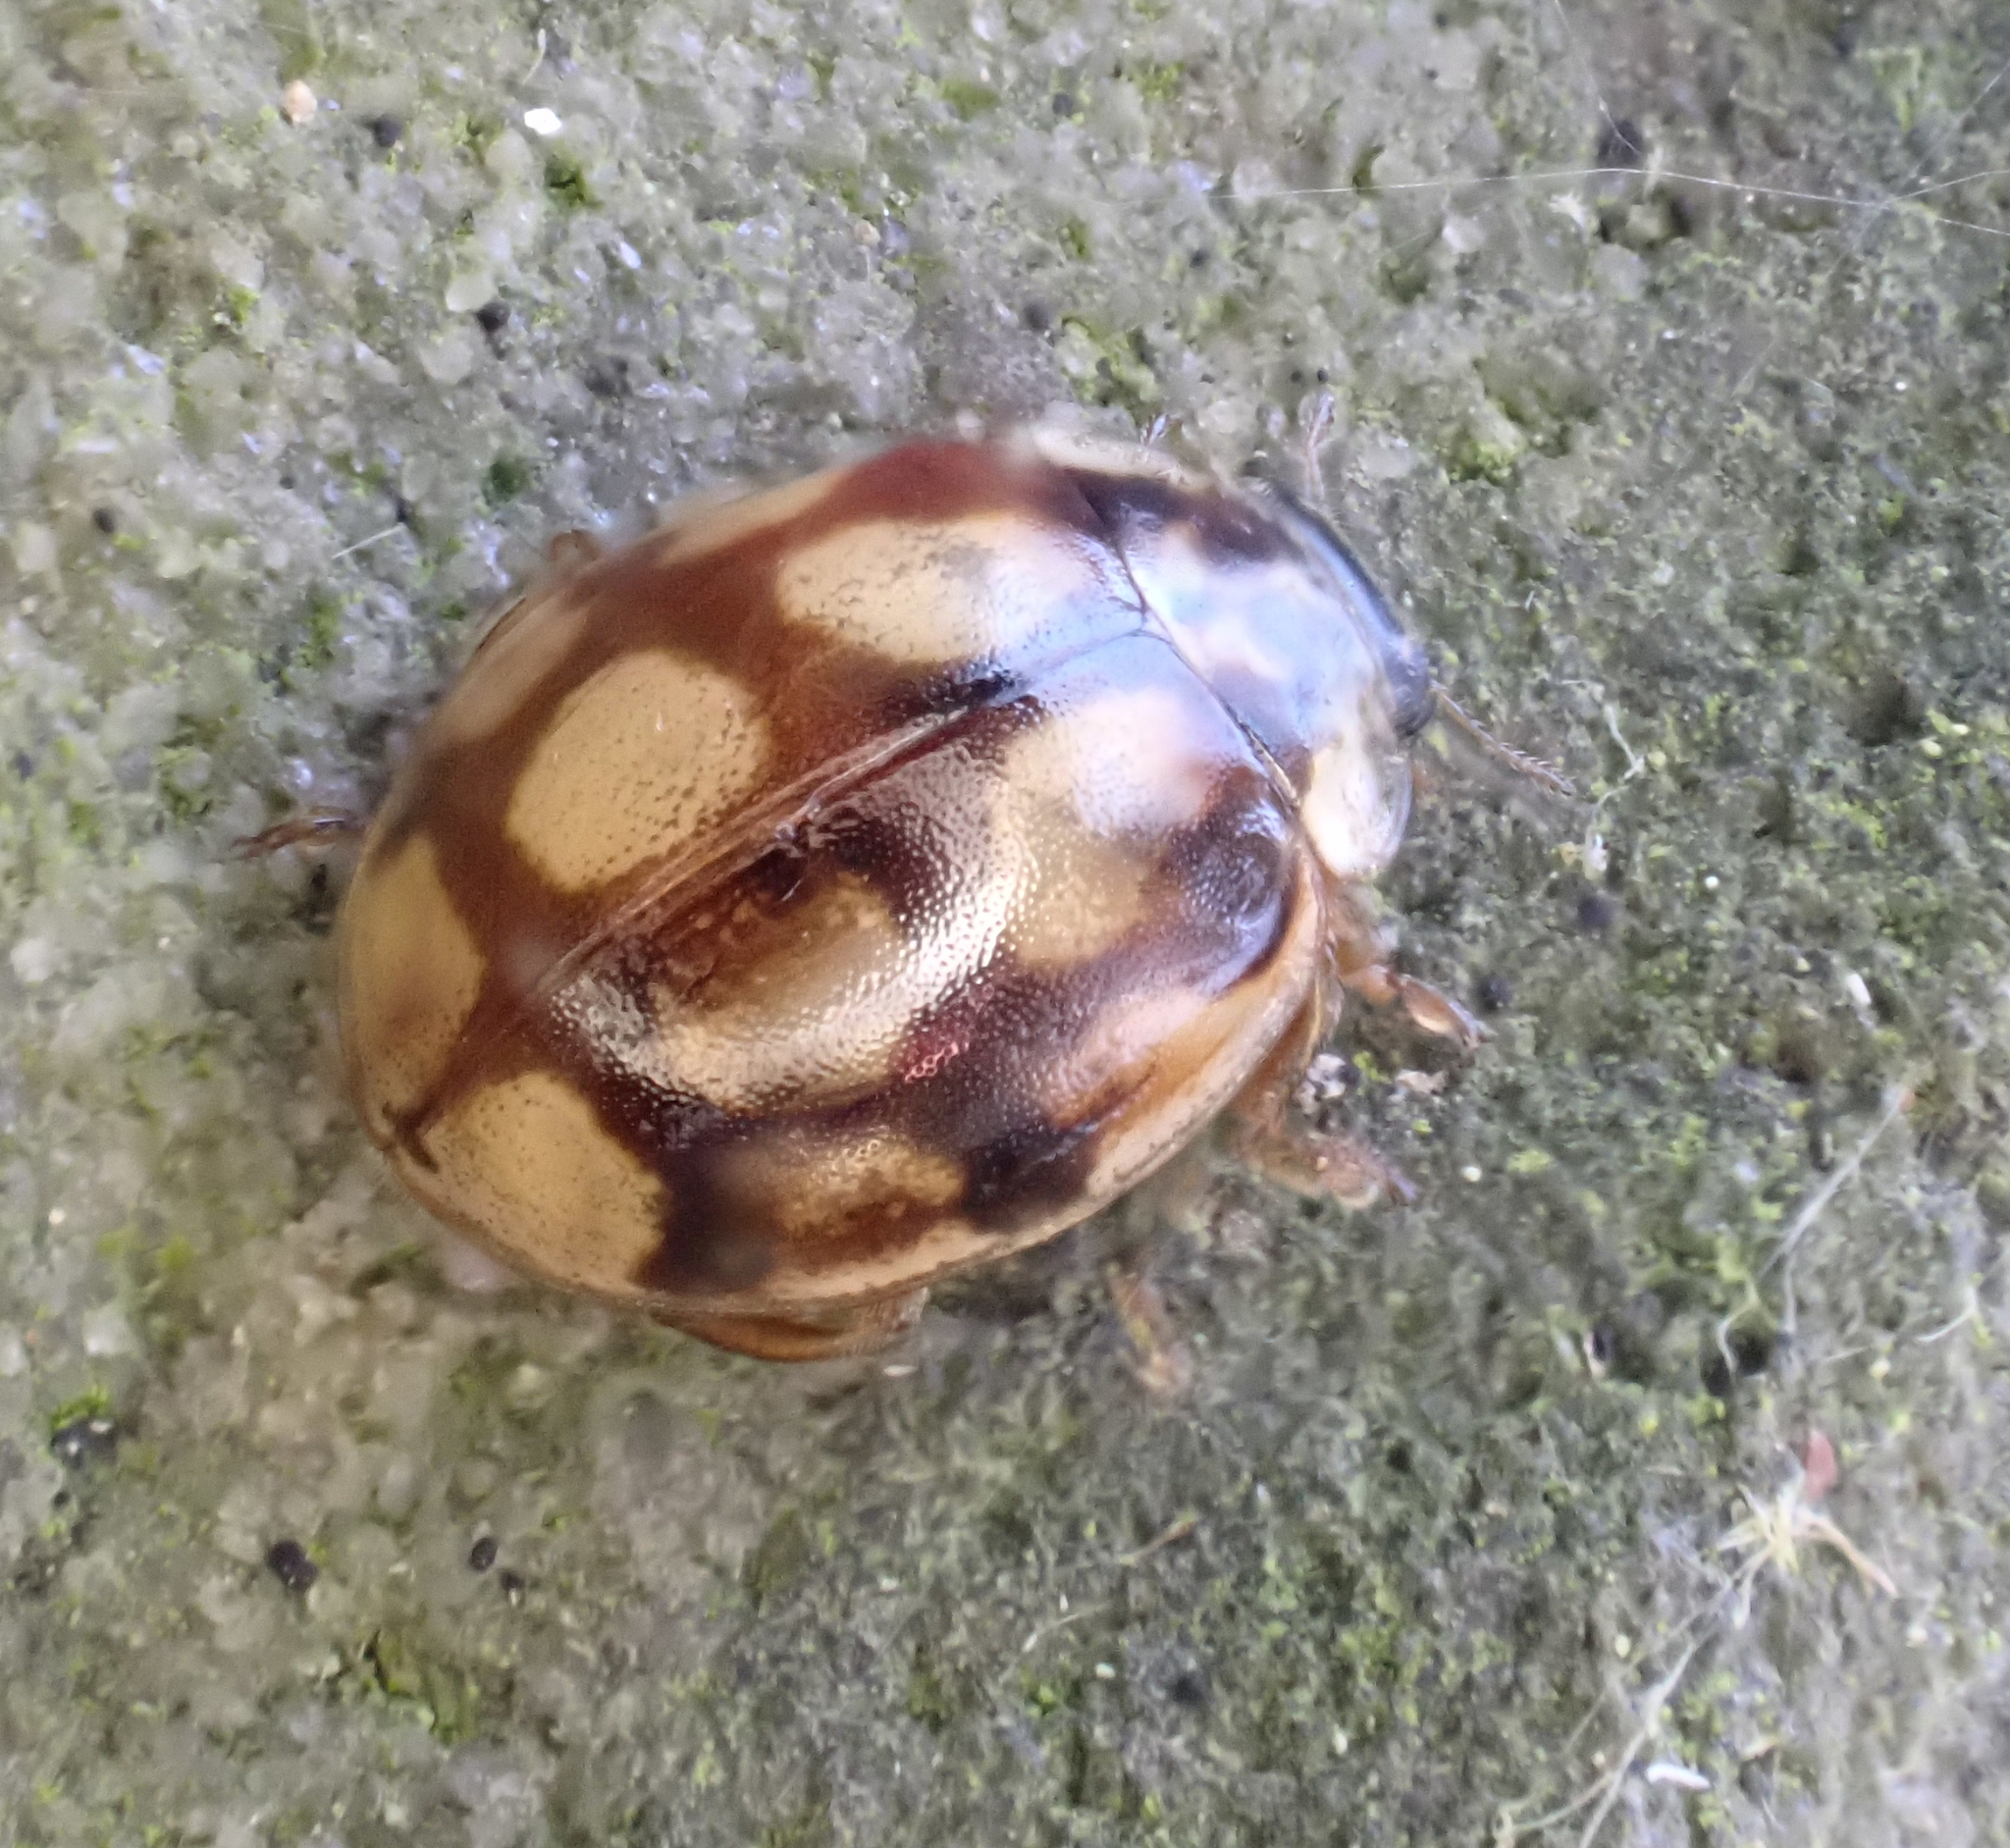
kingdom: Animalia
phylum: Arthropoda
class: Insecta
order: Coleoptera
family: Coccinellidae
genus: Adalia
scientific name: Adalia decempunctata
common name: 10-spot ladybird
